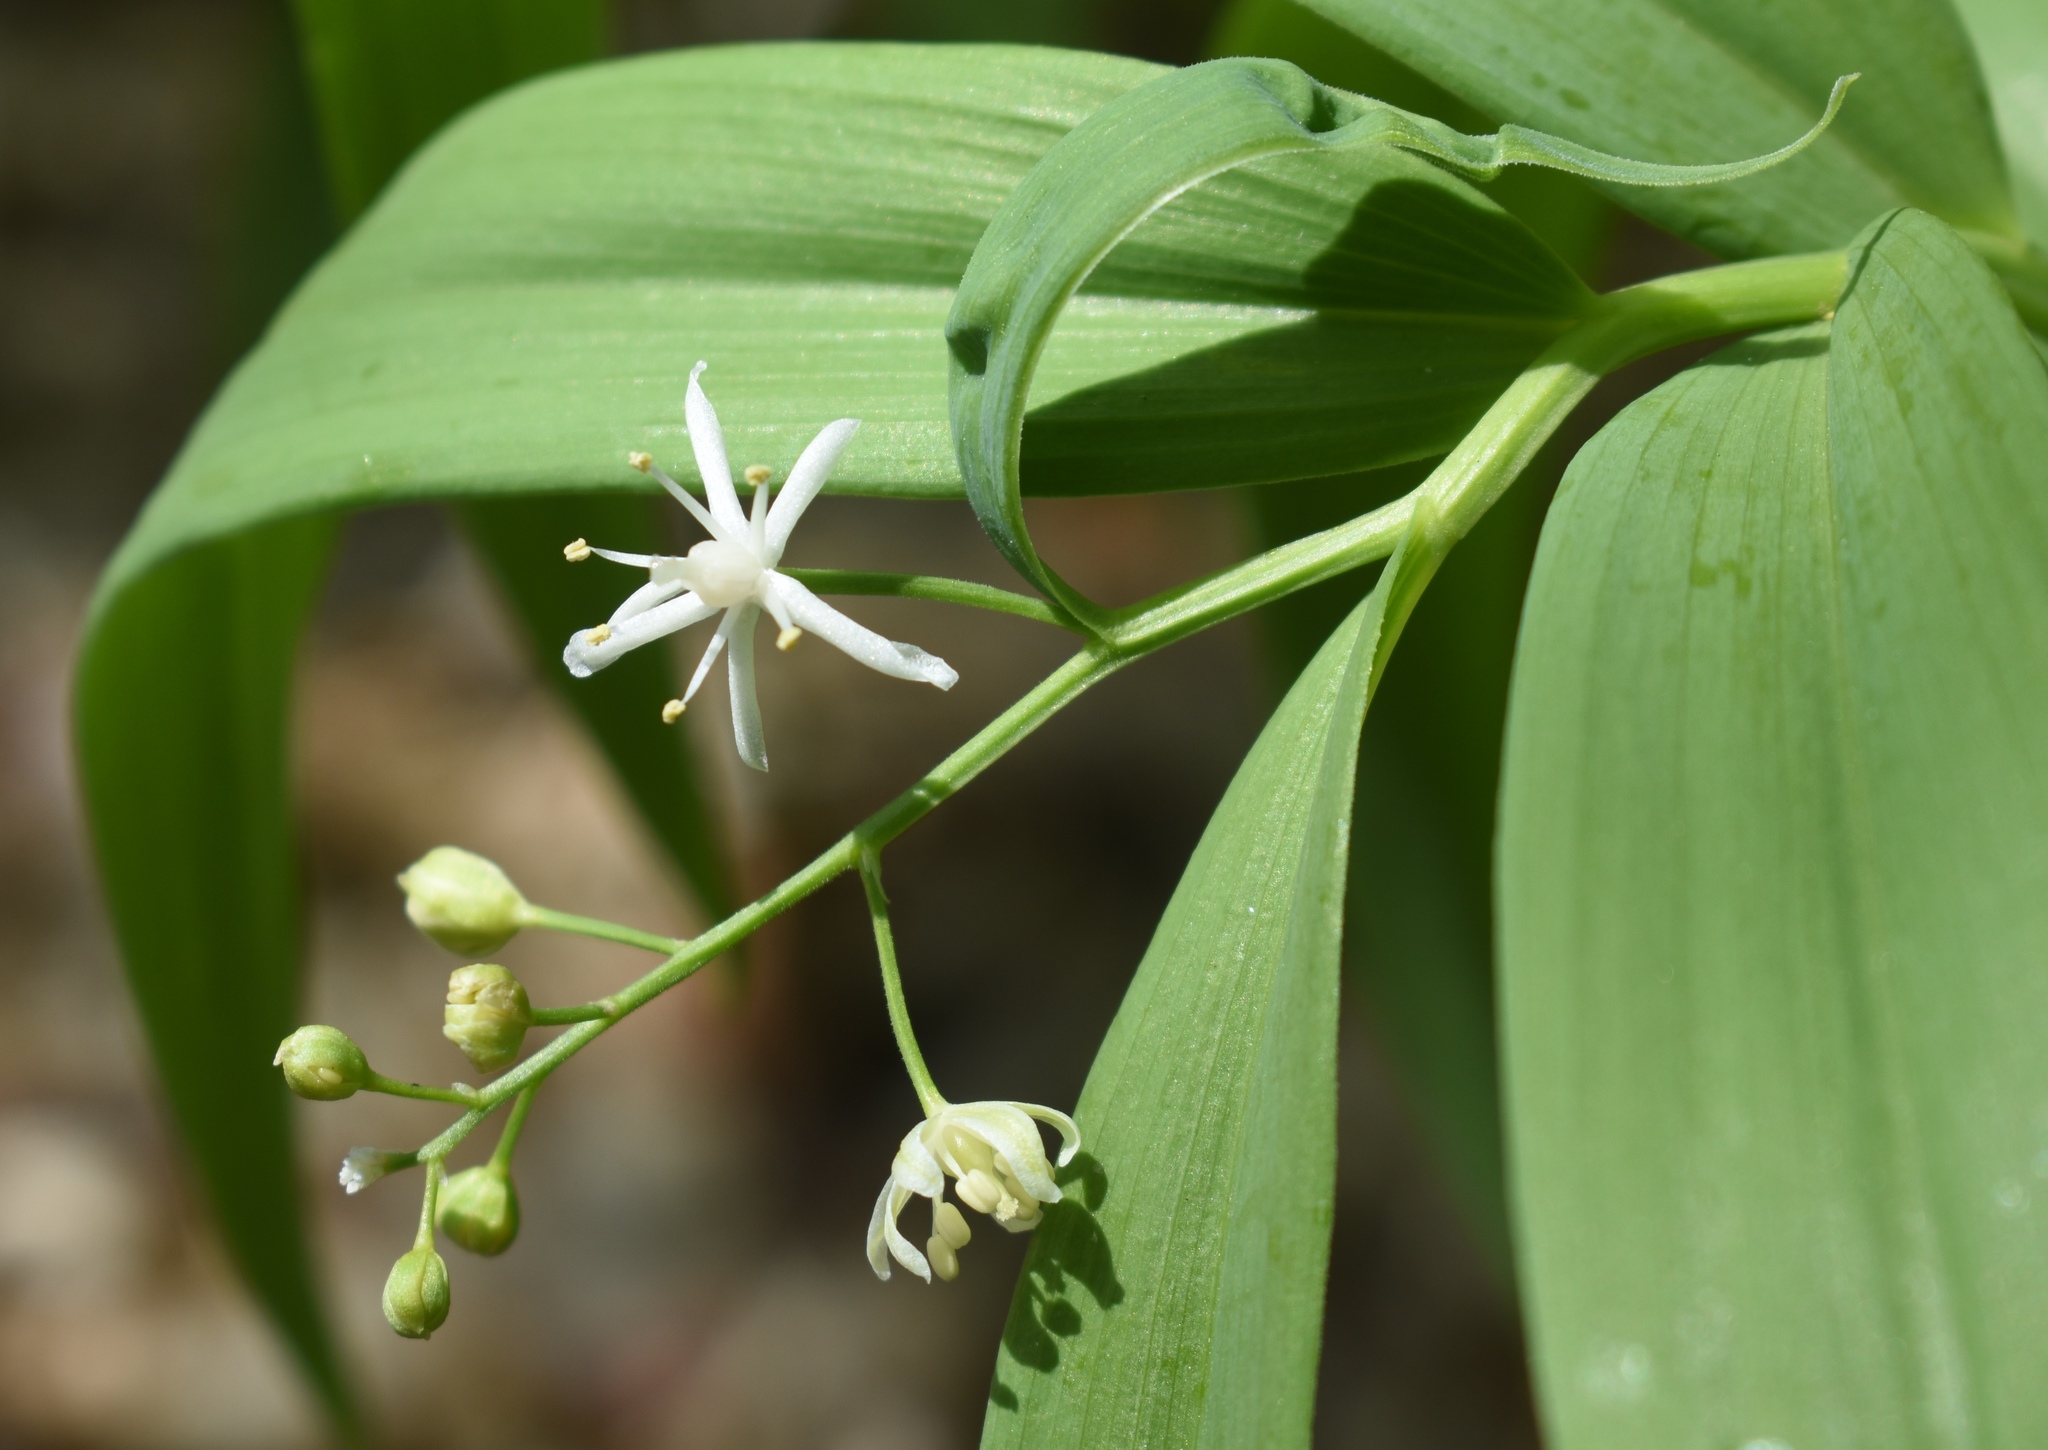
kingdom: Plantae
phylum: Tracheophyta
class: Liliopsida
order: Asparagales
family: Asparagaceae
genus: Maianthemum
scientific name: Maianthemum stellatum
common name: Little false solomon's seal
